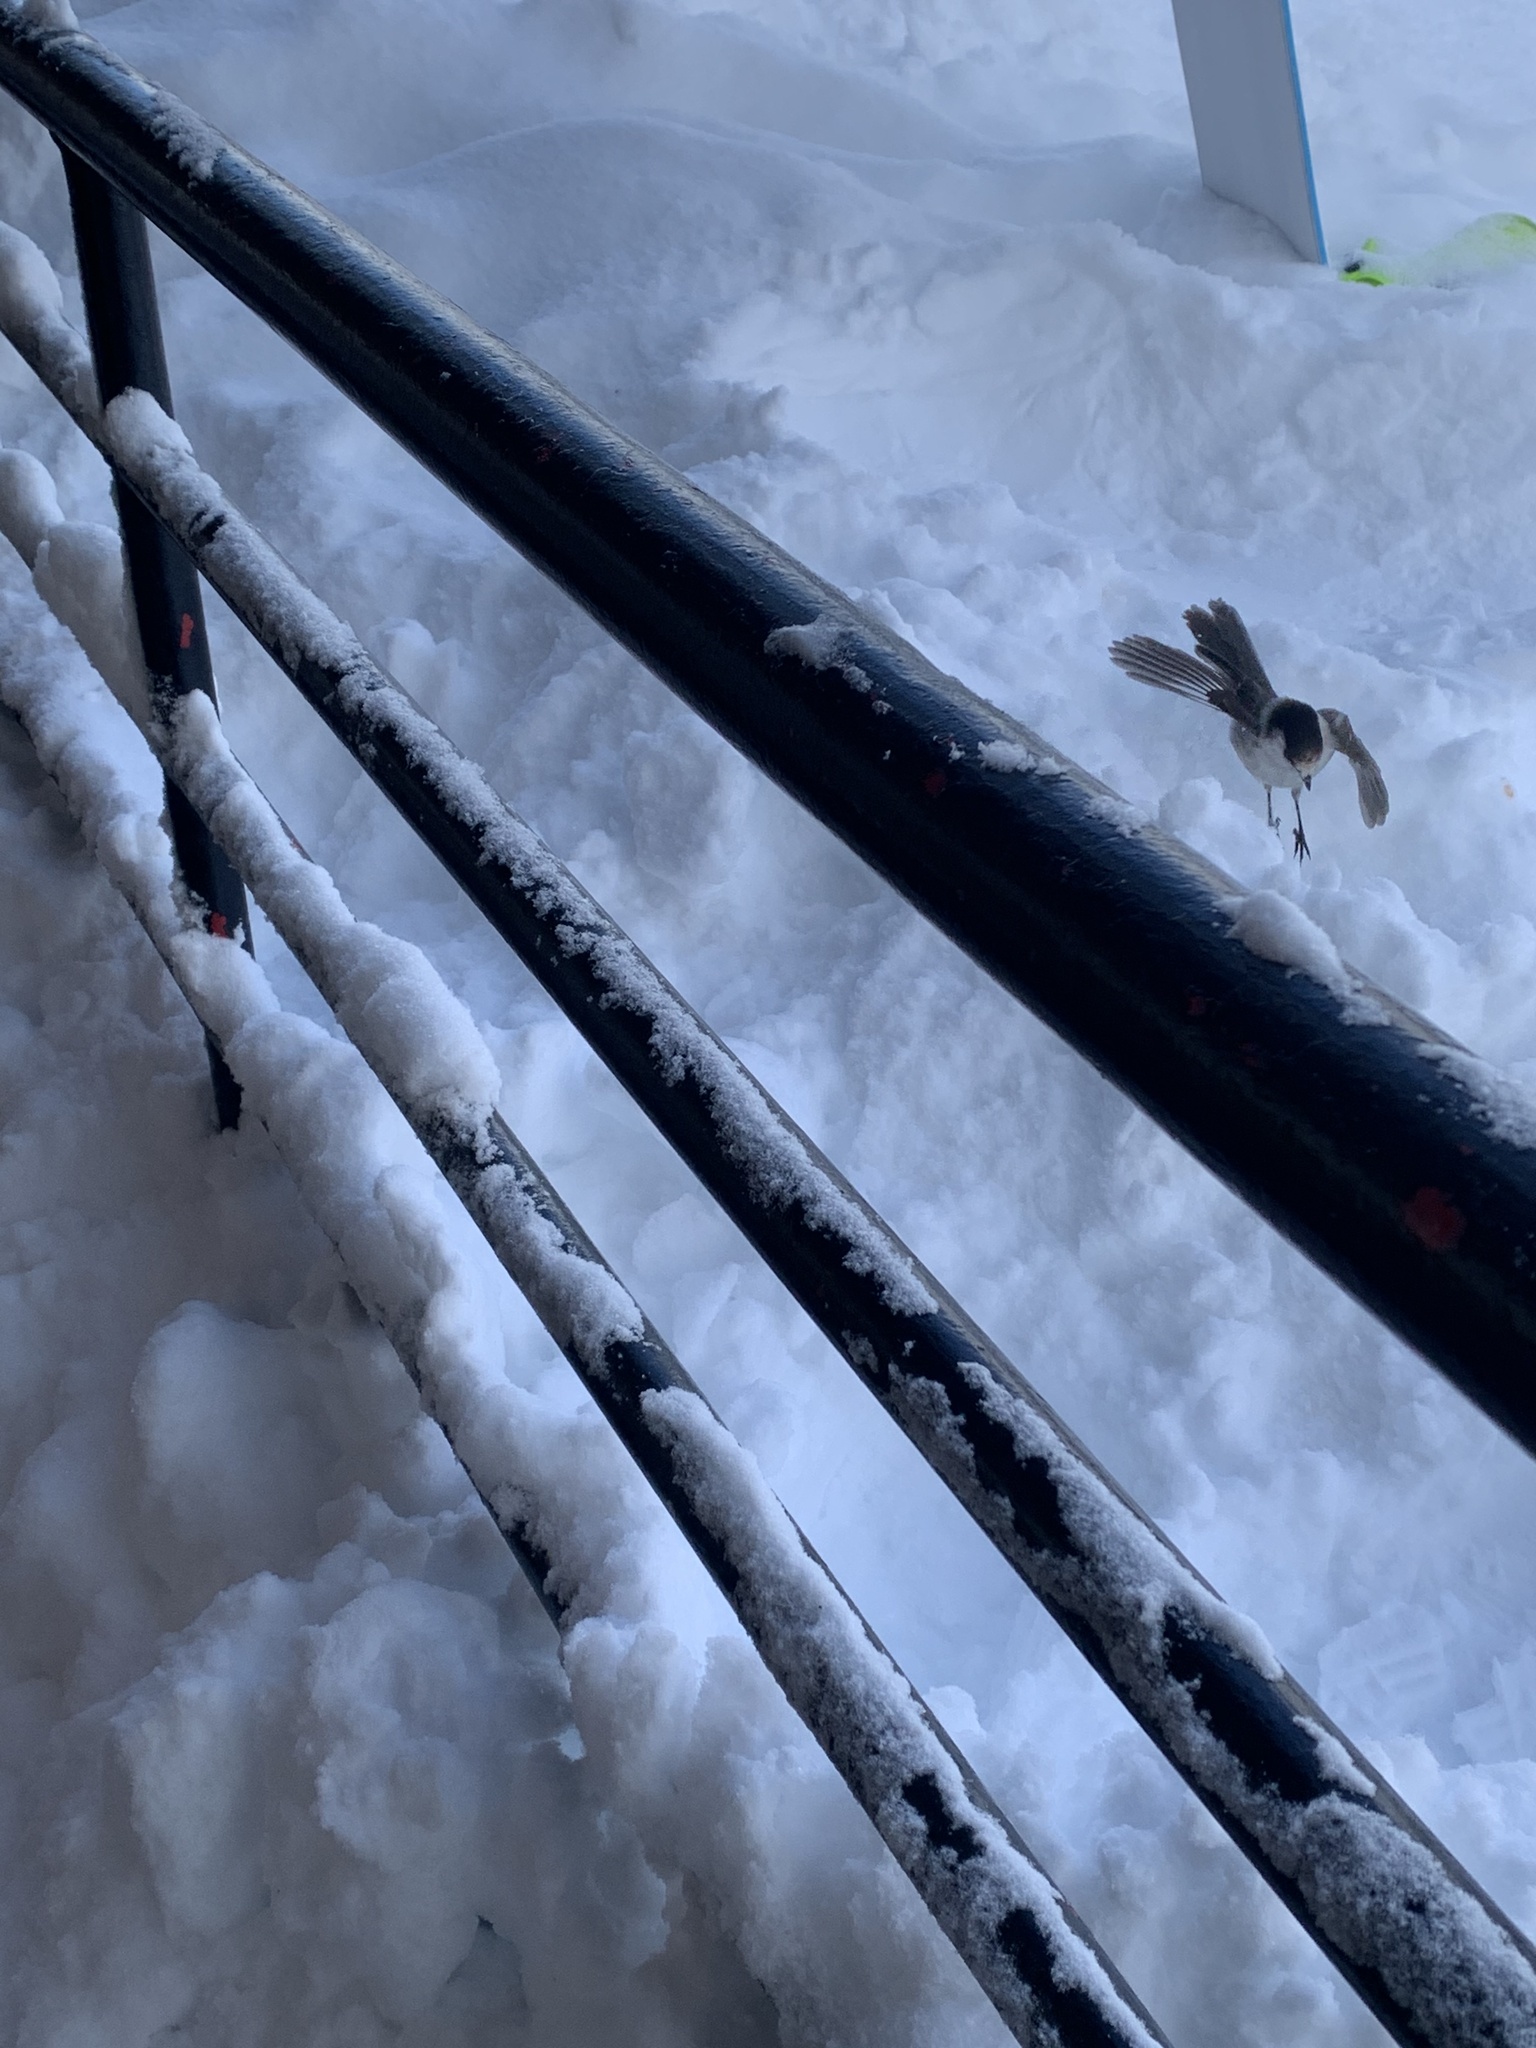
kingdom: Animalia
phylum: Chordata
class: Aves
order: Passeriformes
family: Corvidae
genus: Perisoreus
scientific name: Perisoreus canadensis
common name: Gray jay
